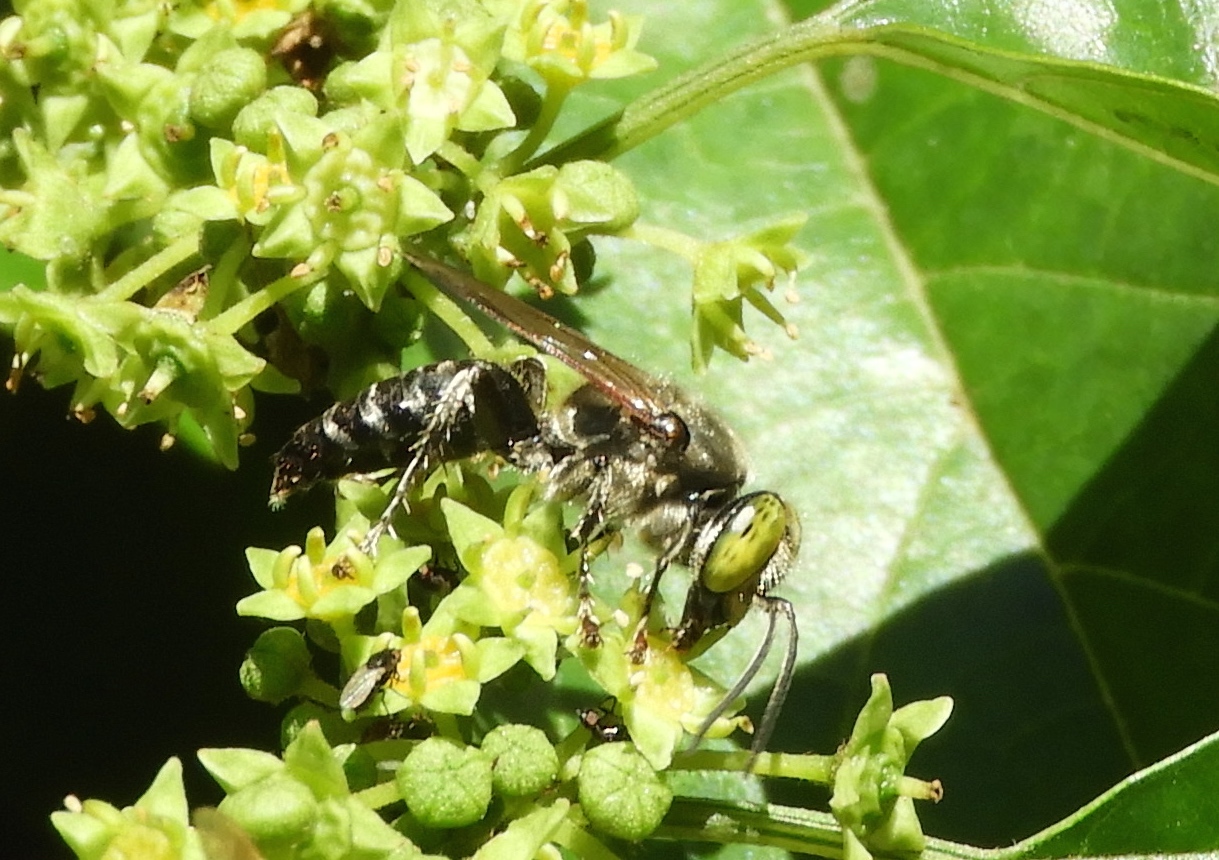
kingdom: Animalia
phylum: Arthropoda
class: Insecta
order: Hymenoptera
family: Crabronidae
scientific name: Crabronidae
